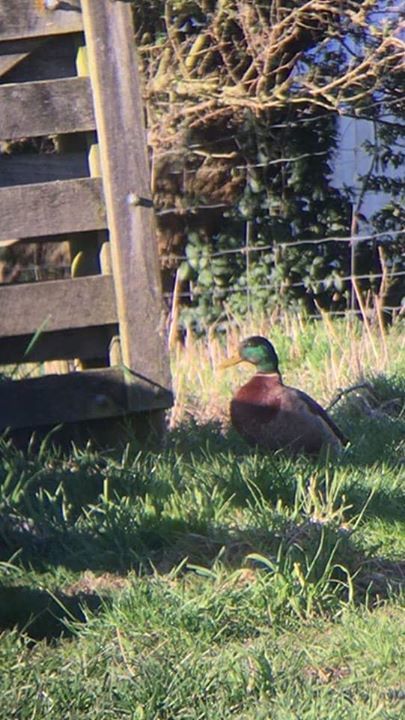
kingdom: Animalia
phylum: Chordata
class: Aves
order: Anseriformes
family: Anatidae
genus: Anas
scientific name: Anas platyrhynchos
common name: Mallard
